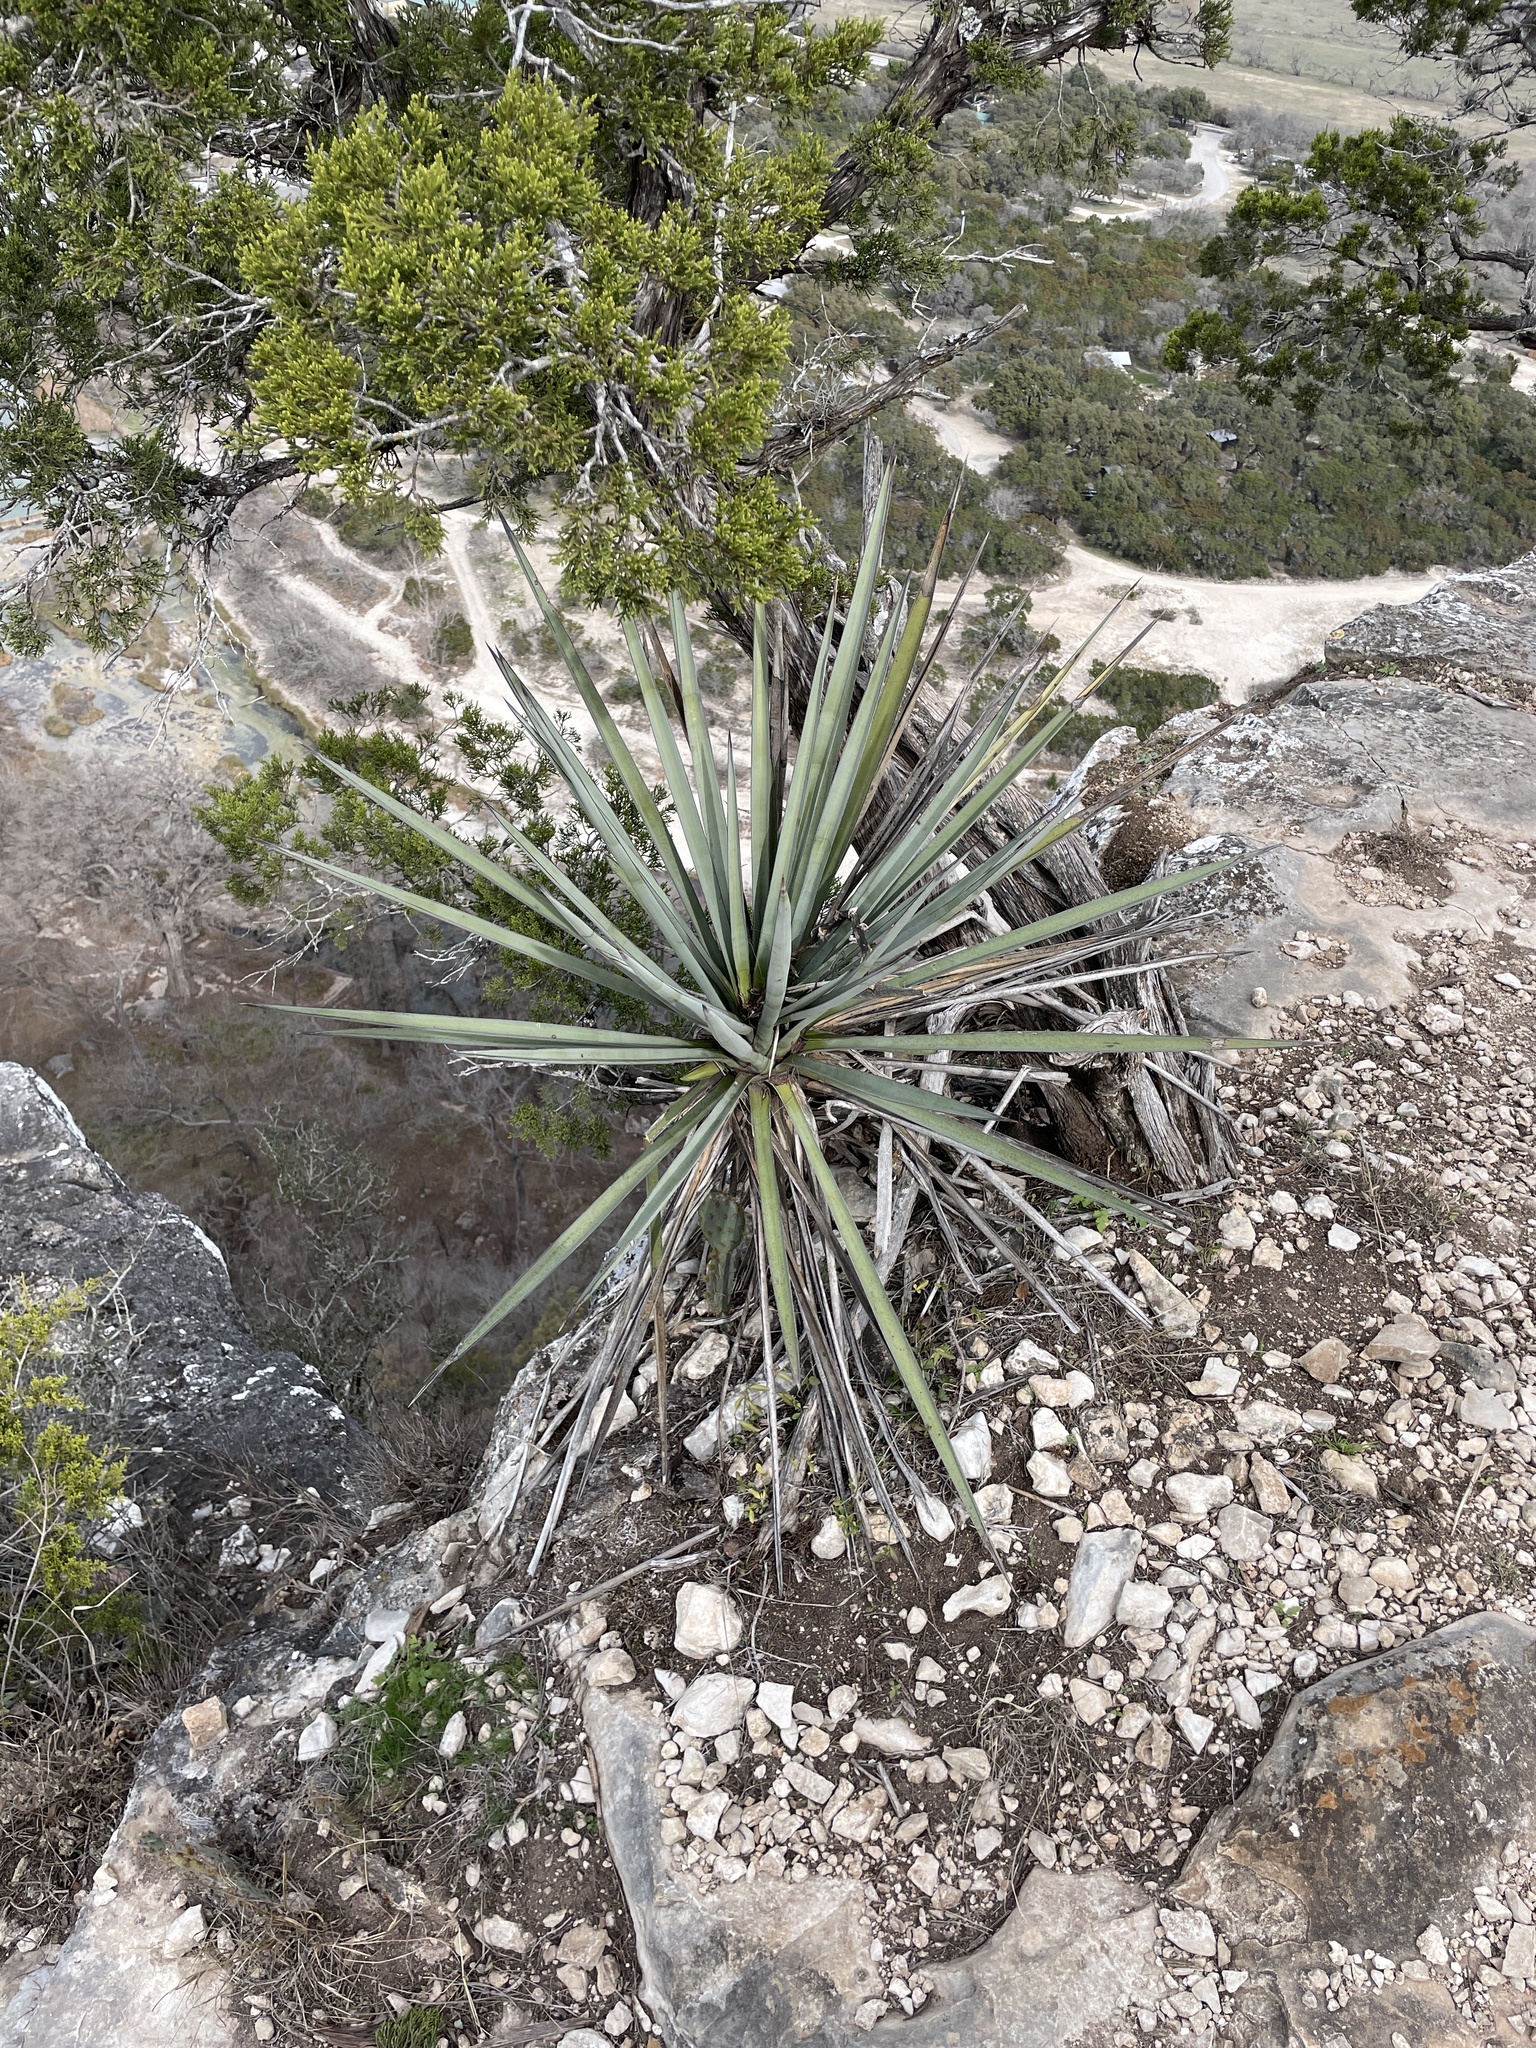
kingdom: Plantae
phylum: Tracheophyta
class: Liliopsida
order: Asparagales
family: Asparagaceae
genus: Yucca
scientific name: Yucca treculiana
